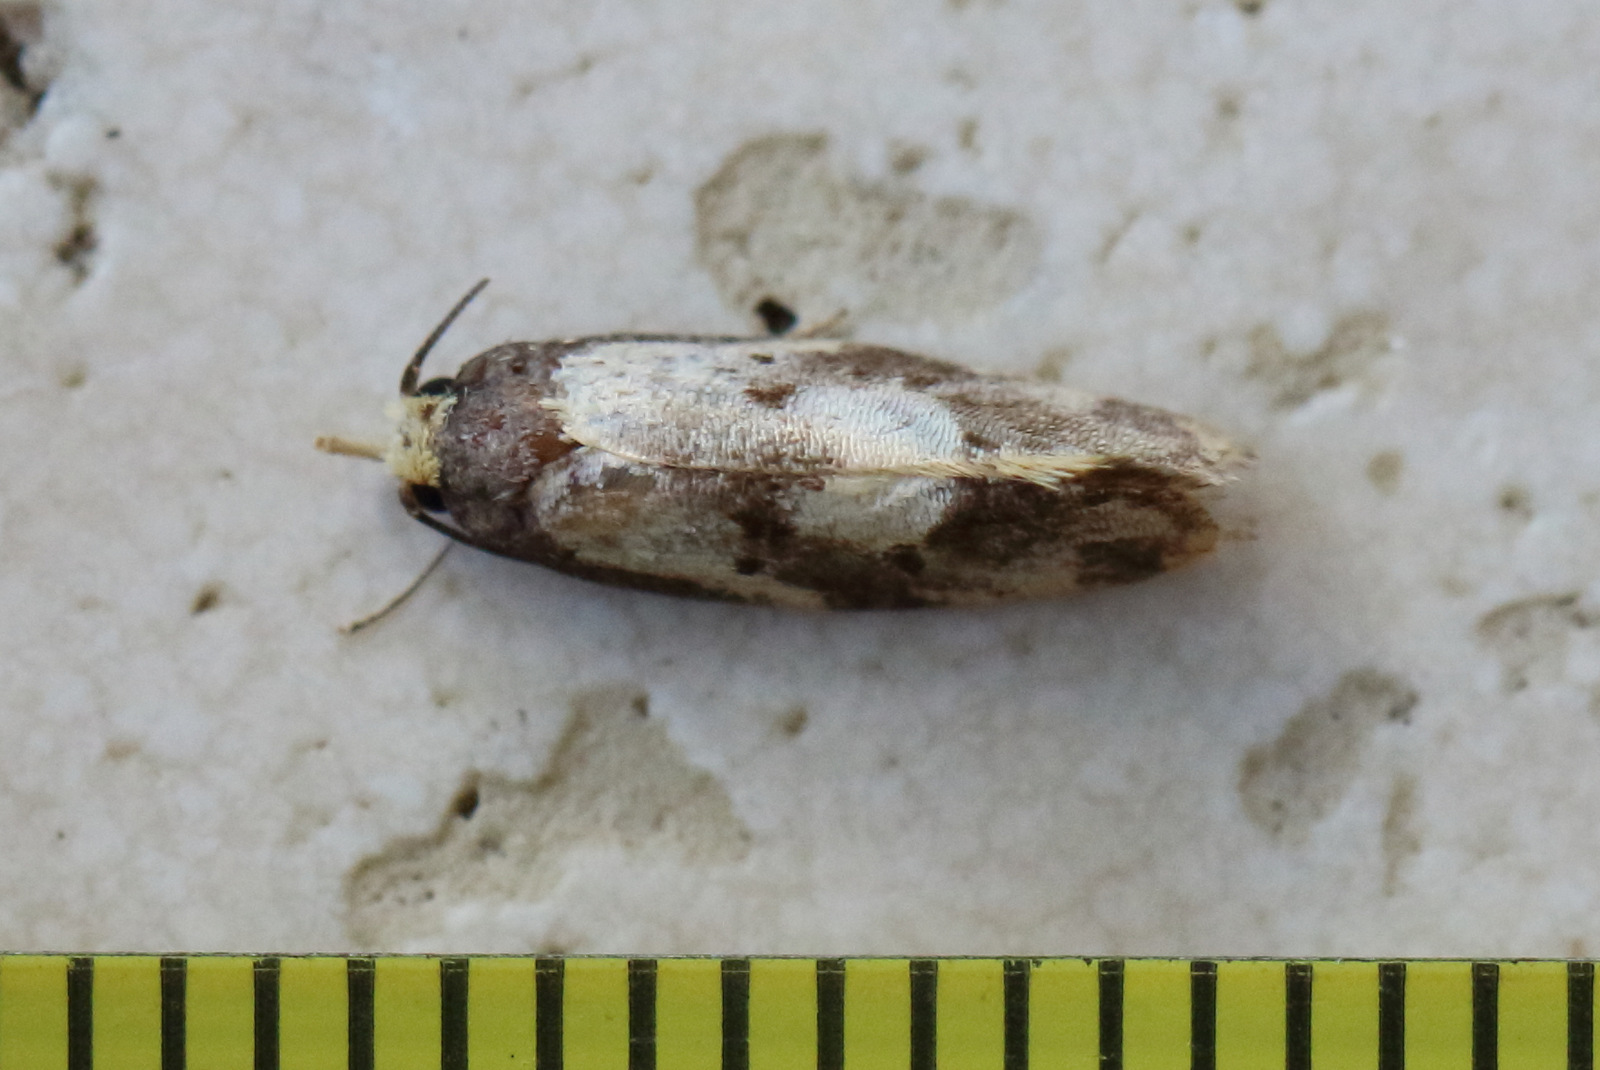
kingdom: Animalia
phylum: Arthropoda
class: Insecta
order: Lepidoptera
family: Oecophoridae
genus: Eulechria
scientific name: Eulechria marmorata
